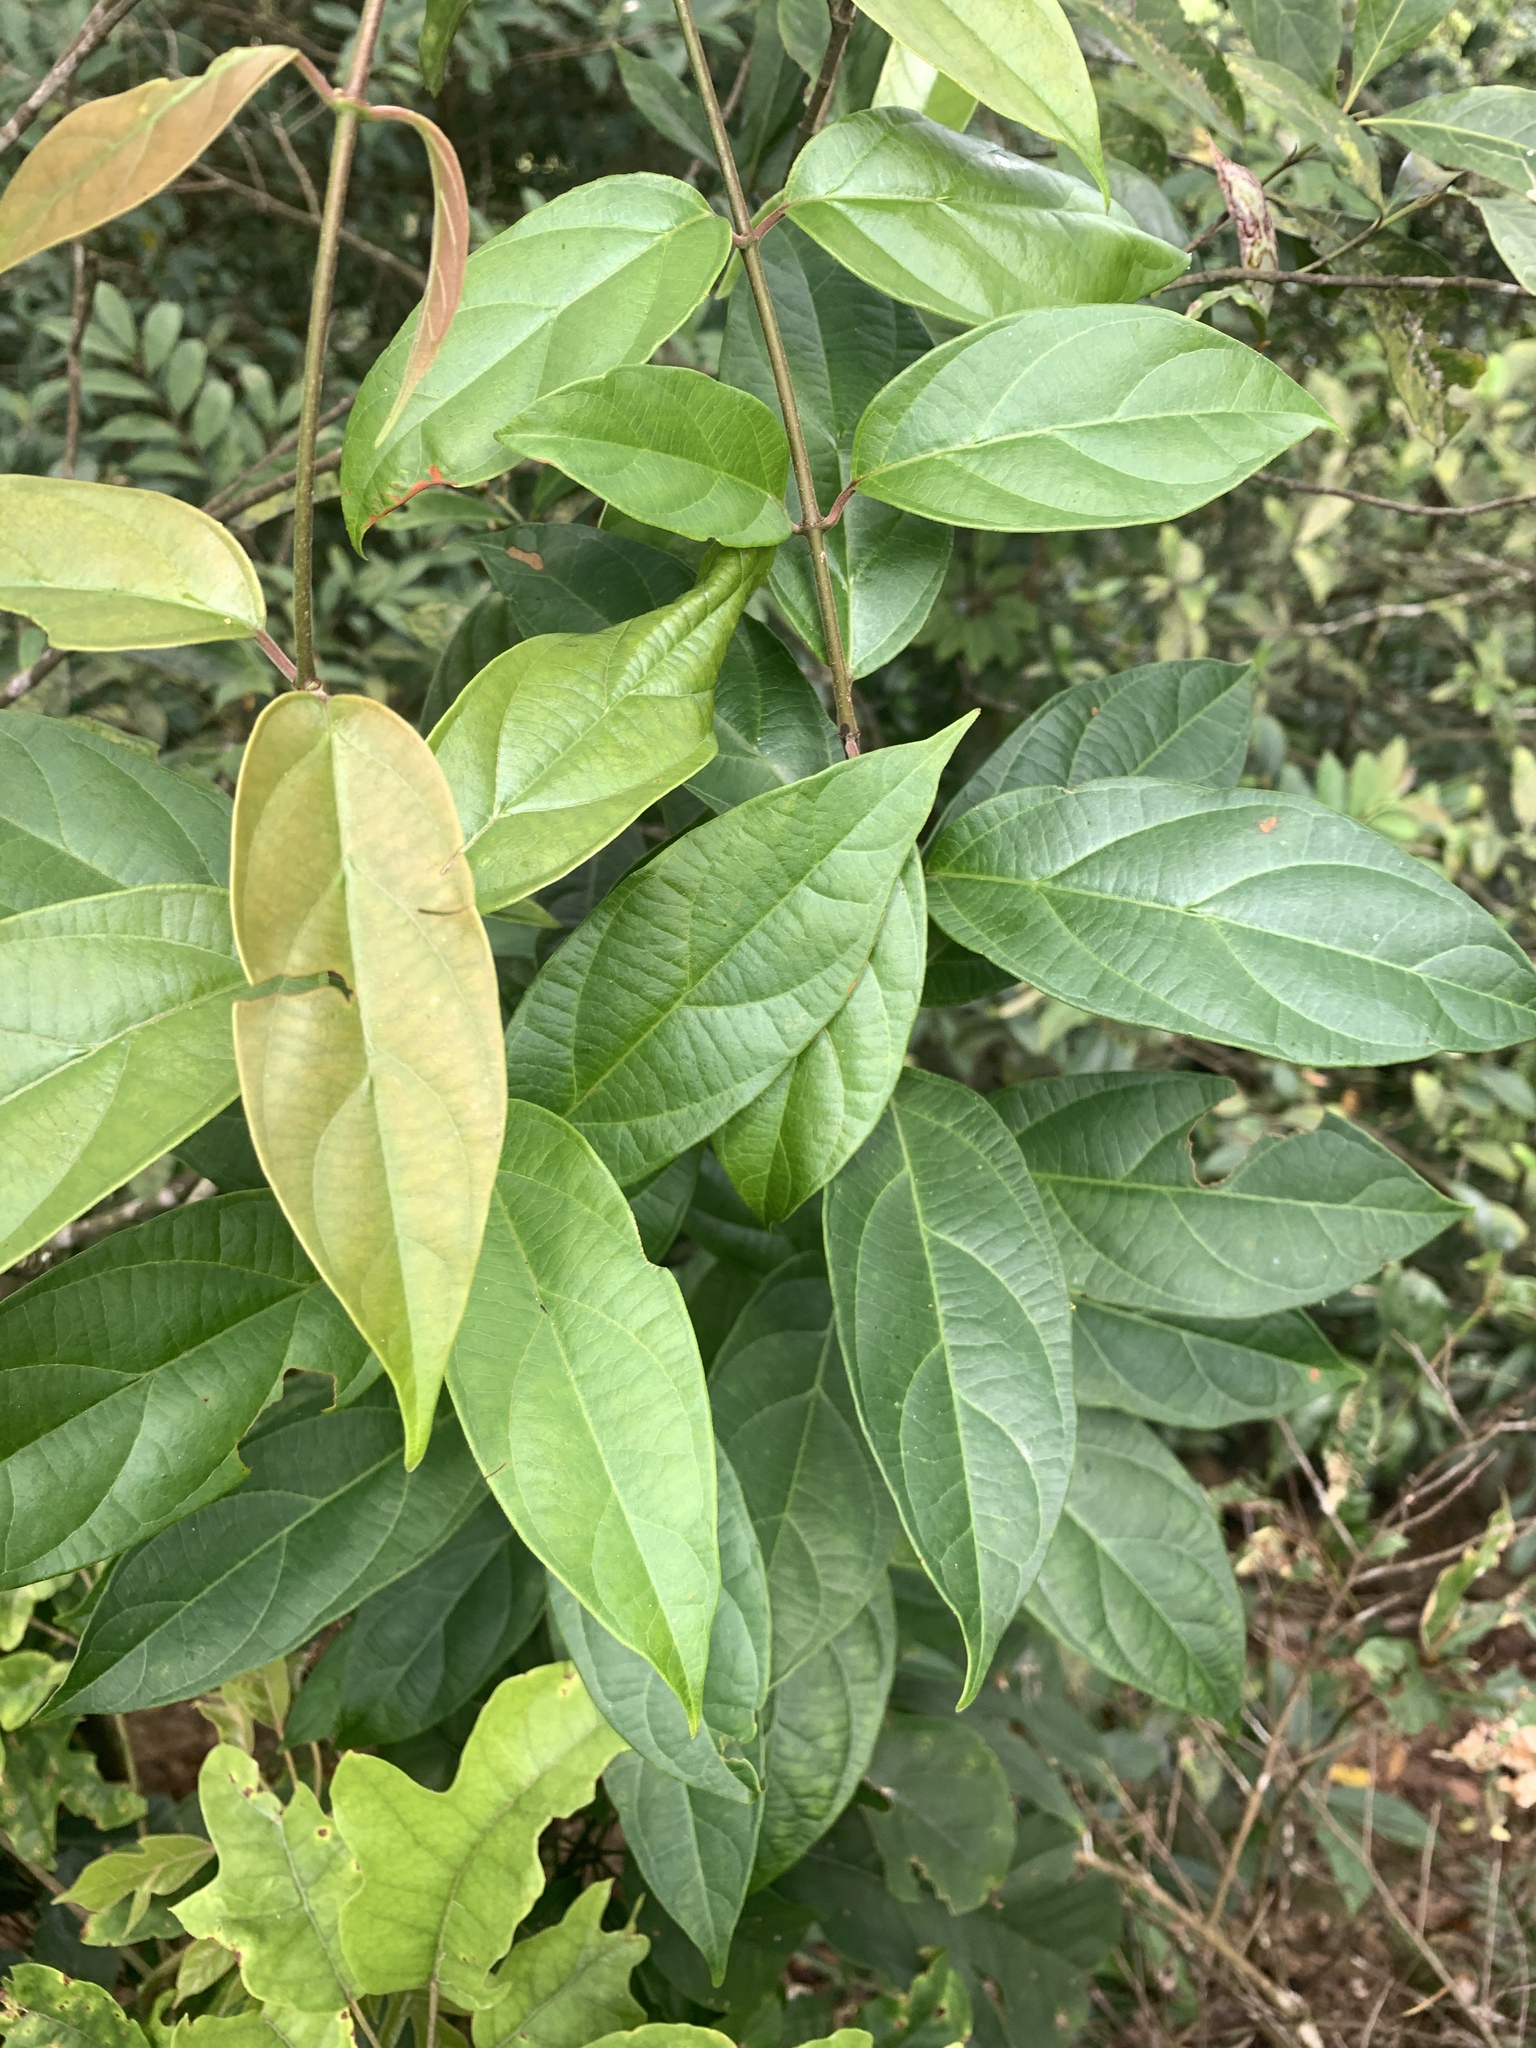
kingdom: Plantae
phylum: Tracheophyta
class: Magnoliopsida
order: Gentianales
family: Apocynaceae
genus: Urceola
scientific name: Urceola micrantha
